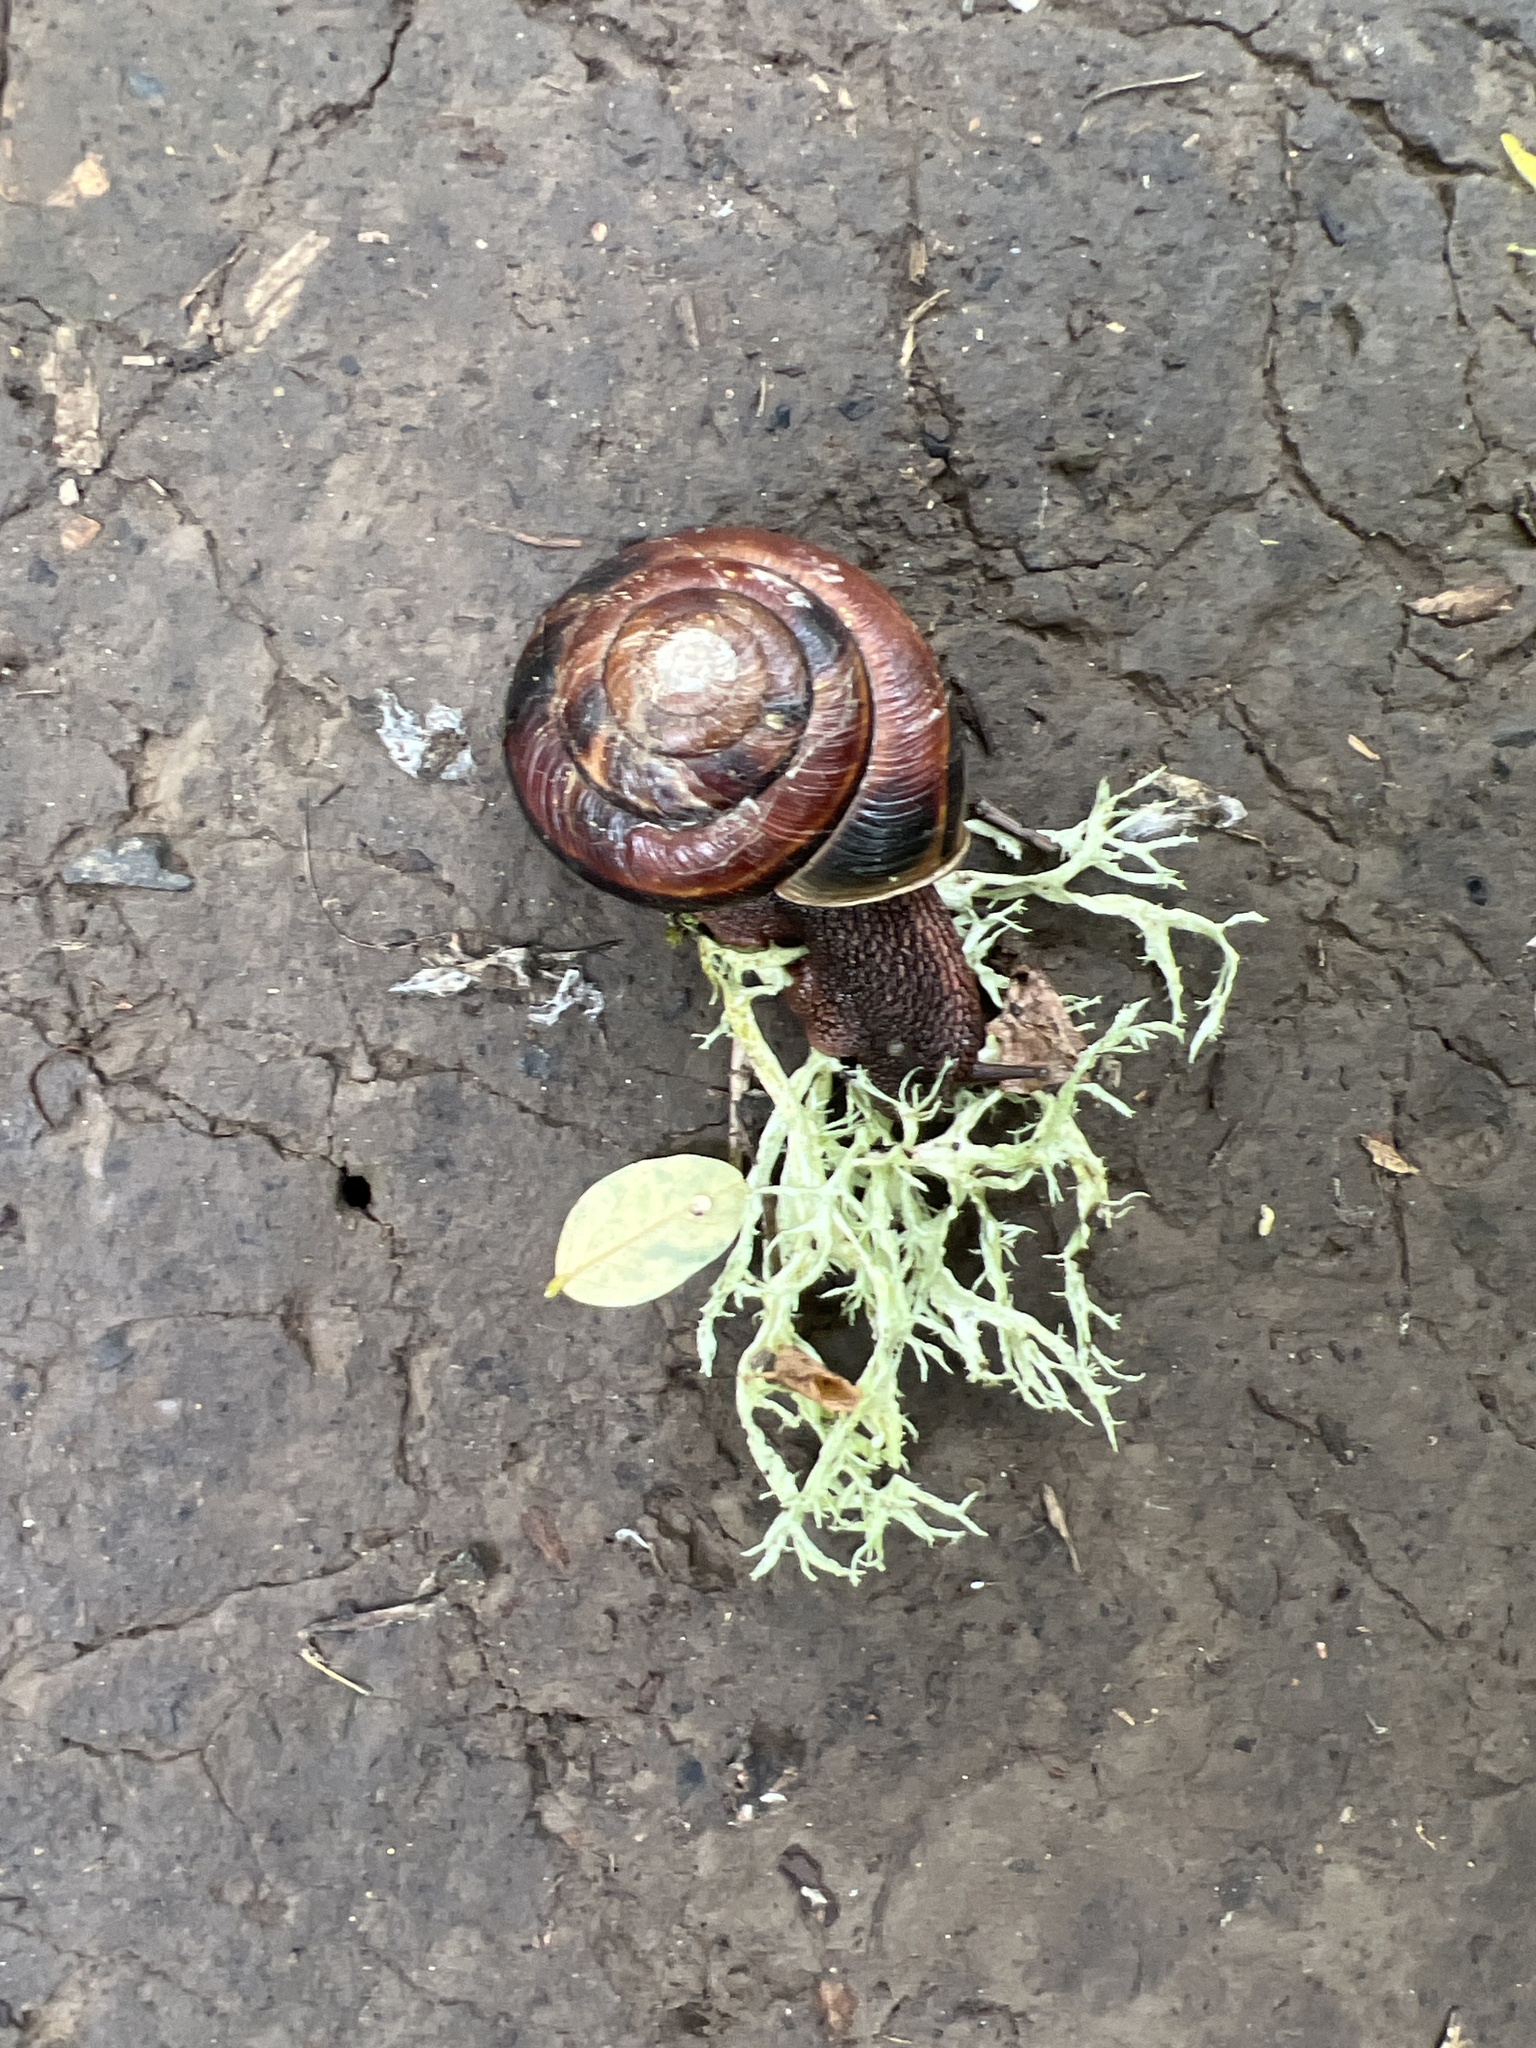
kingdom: Animalia
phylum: Mollusca
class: Gastropoda
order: Stylommatophora
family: Xanthonychidae
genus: Monadenia
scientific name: Monadenia fidelis
